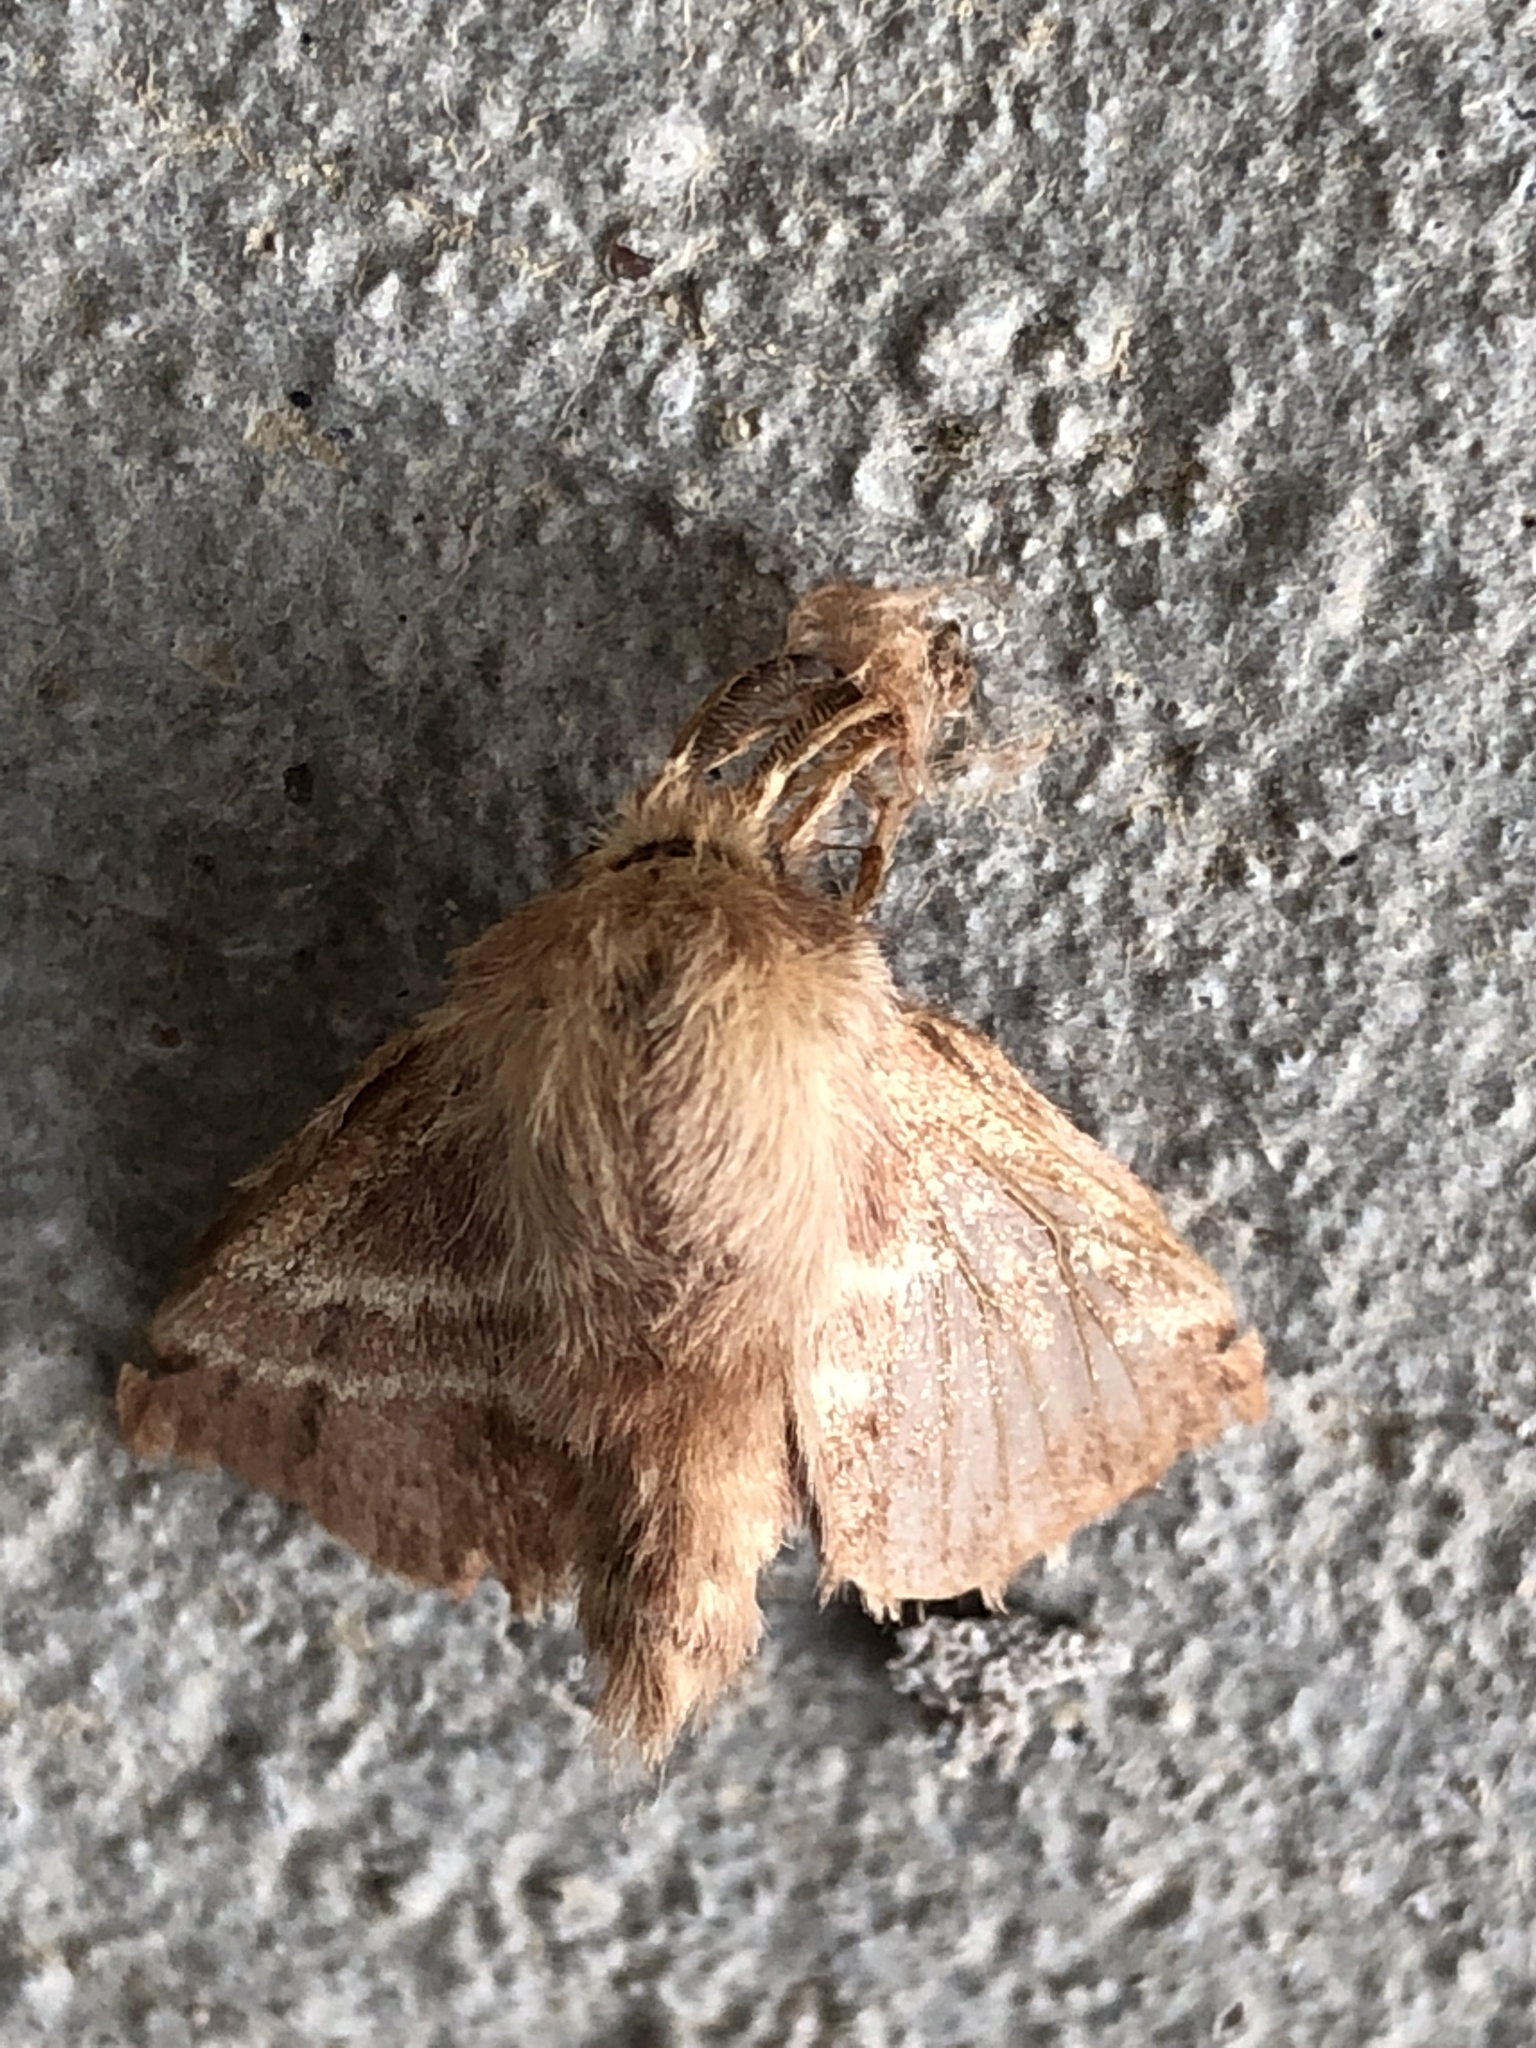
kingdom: Animalia
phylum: Arthropoda
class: Insecta
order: Lepidoptera
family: Lasiocampidae
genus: Malacosoma
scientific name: Malacosoma americana
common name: Eastern tent caterpillar moth
